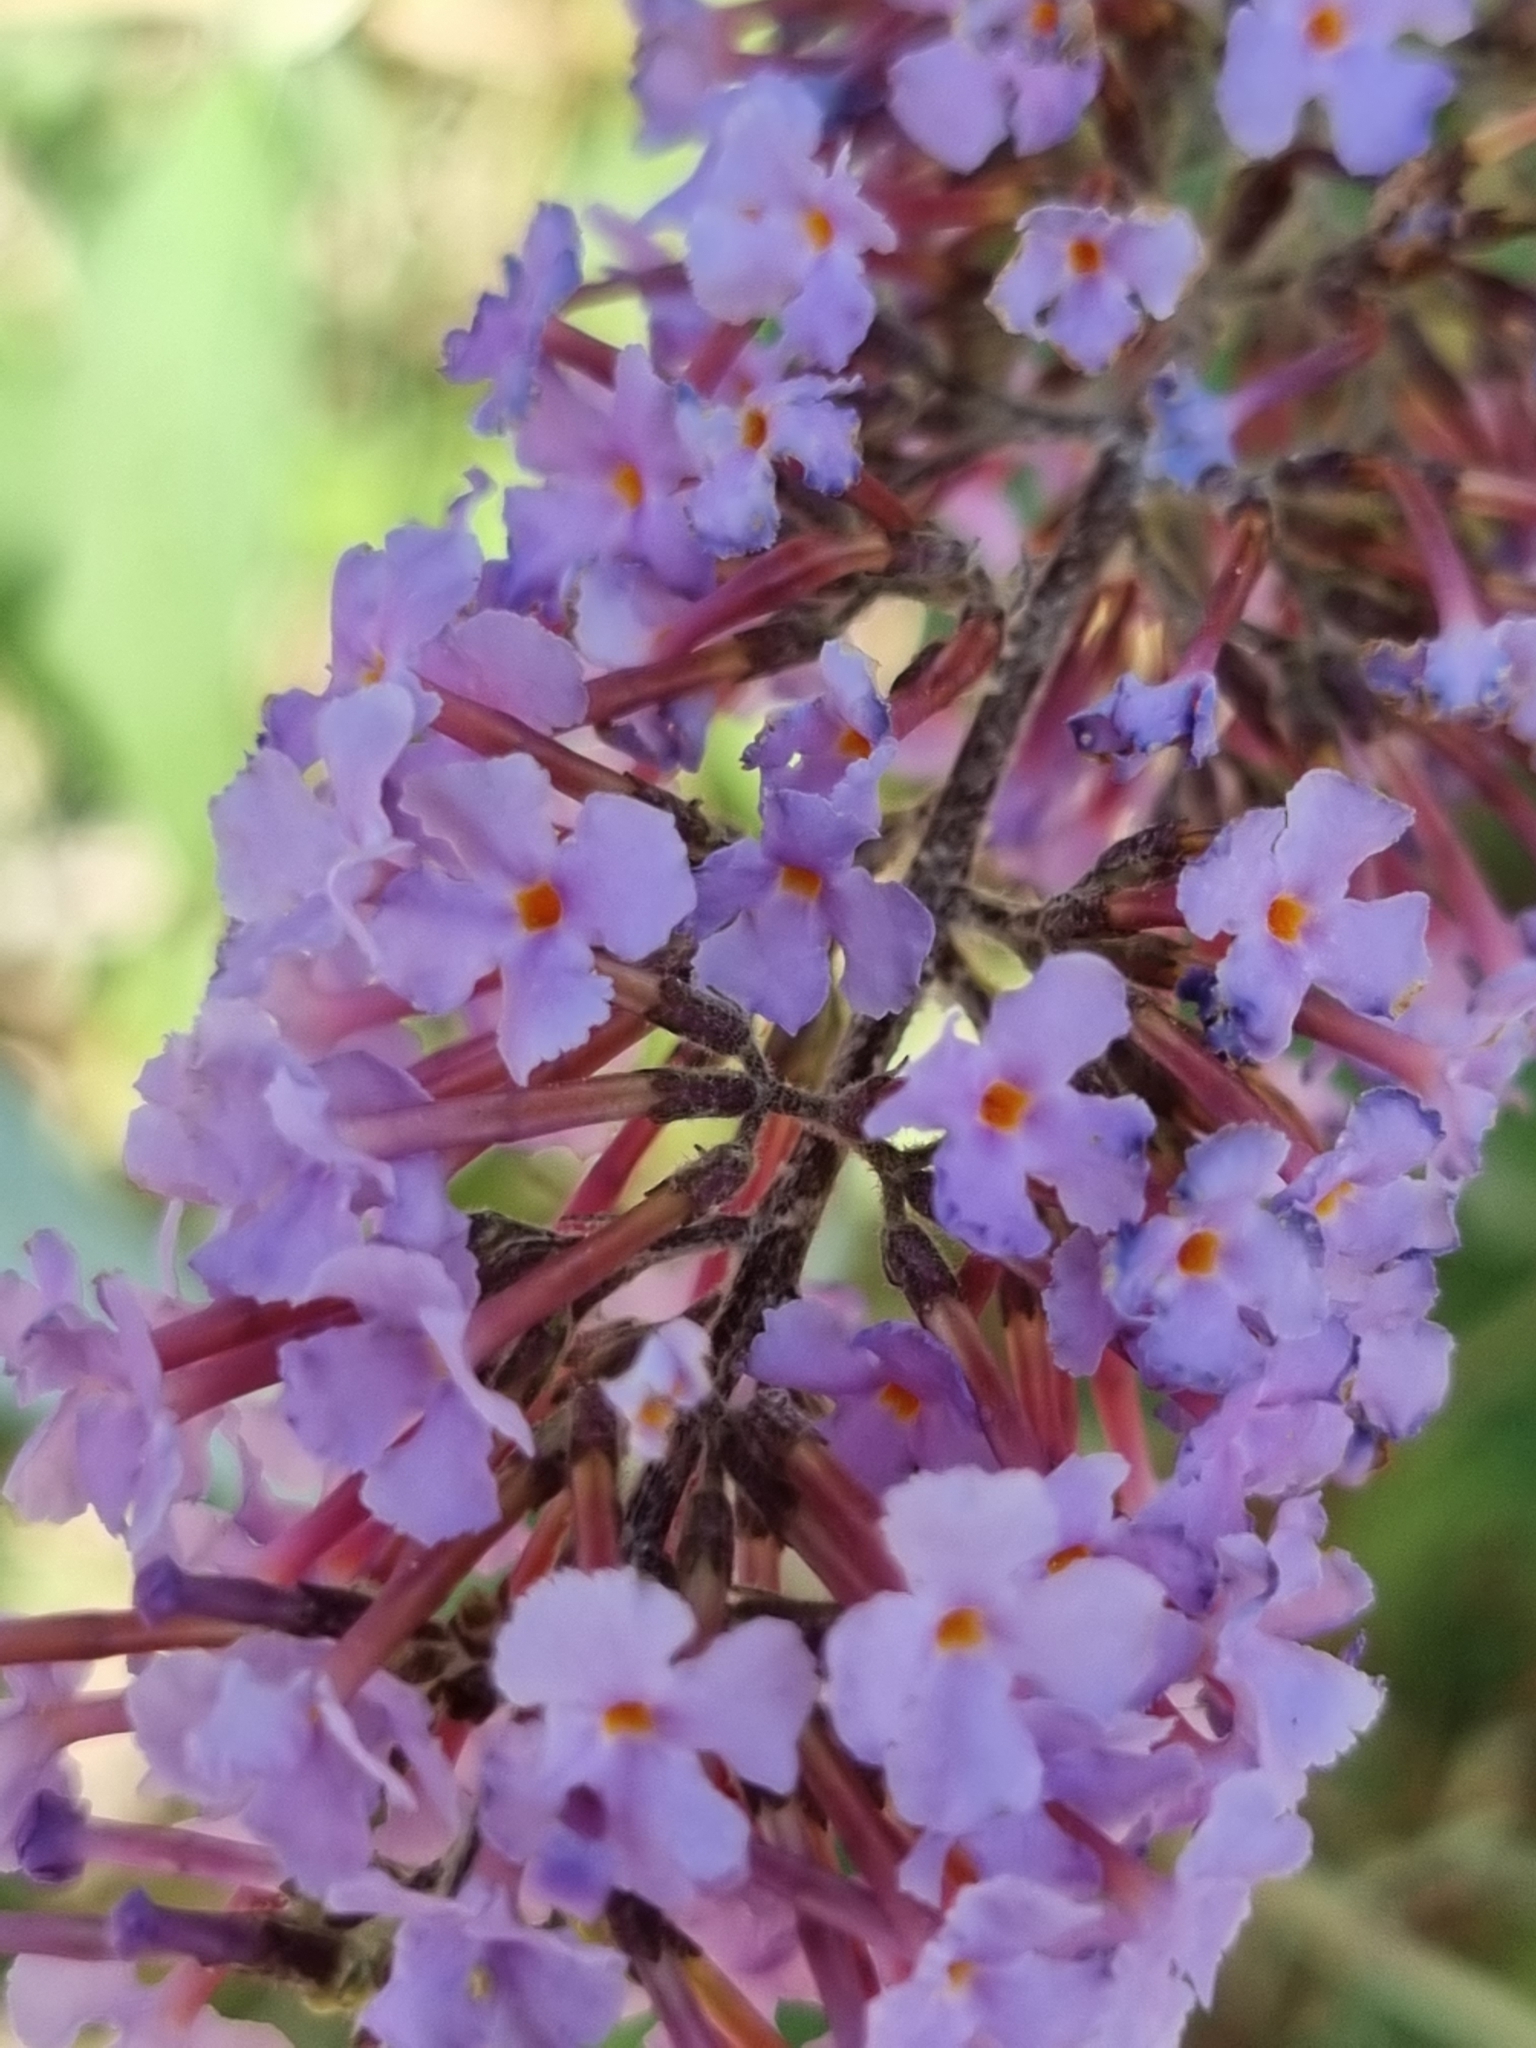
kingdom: Plantae
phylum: Tracheophyta
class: Magnoliopsida
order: Lamiales
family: Scrophulariaceae
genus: Buddleja
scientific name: Buddleja davidii
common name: Butterfly-bush
